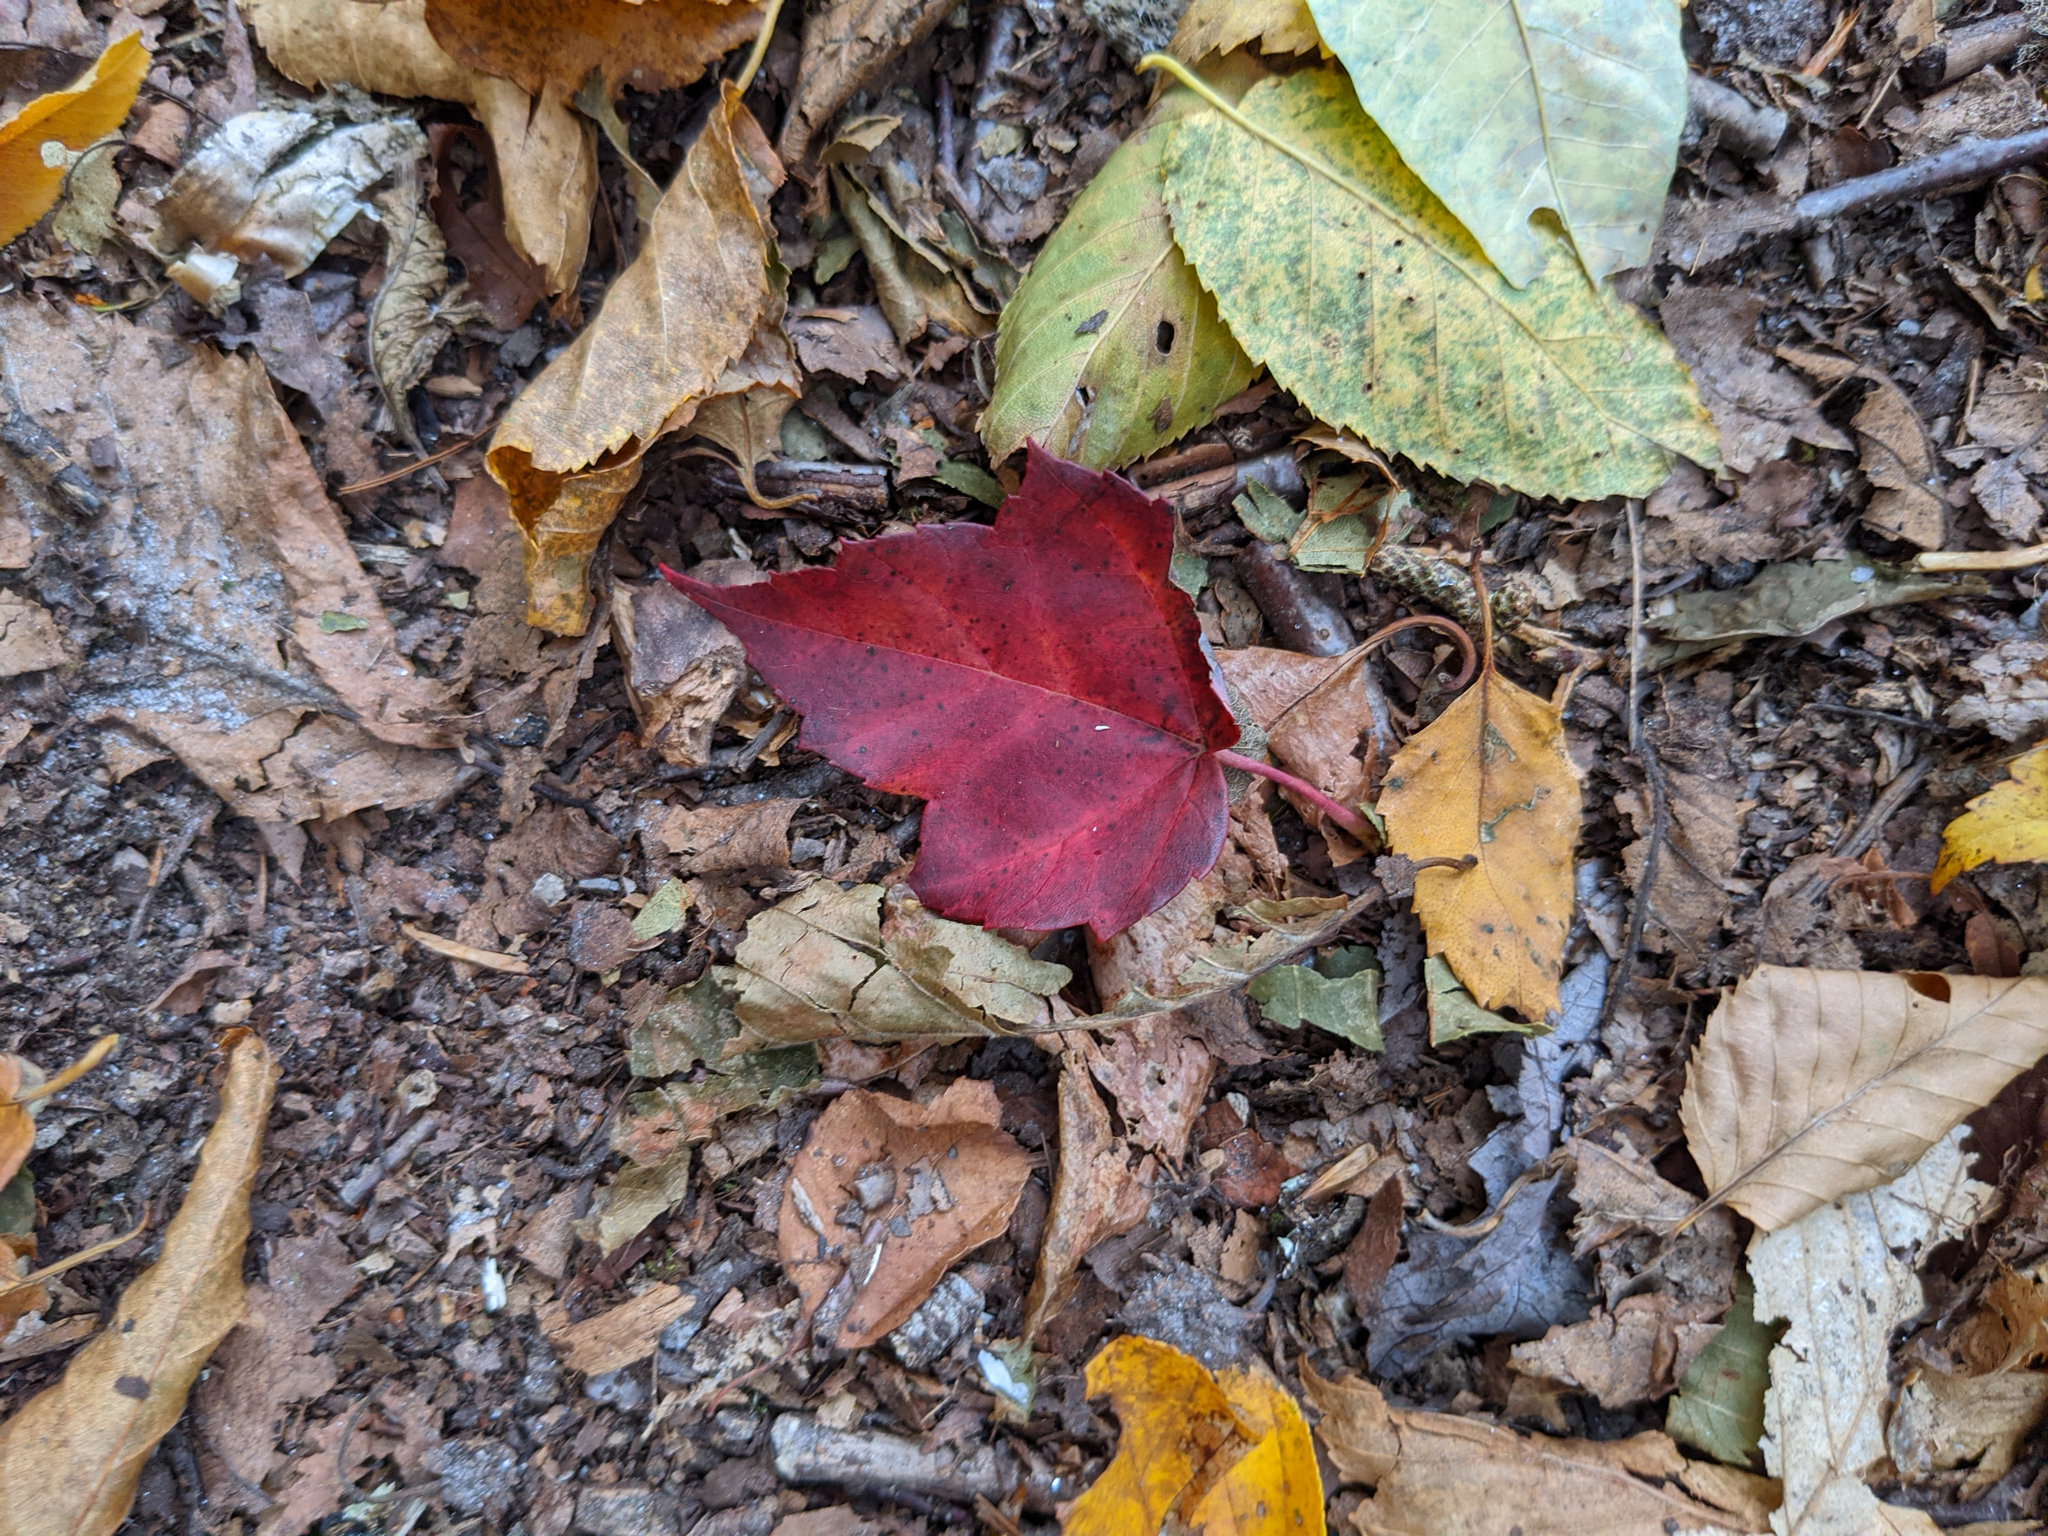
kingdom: Plantae
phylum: Tracheophyta
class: Magnoliopsida
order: Sapindales
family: Sapindaceae
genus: Acer
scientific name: Acer rubrum
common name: Red maple
